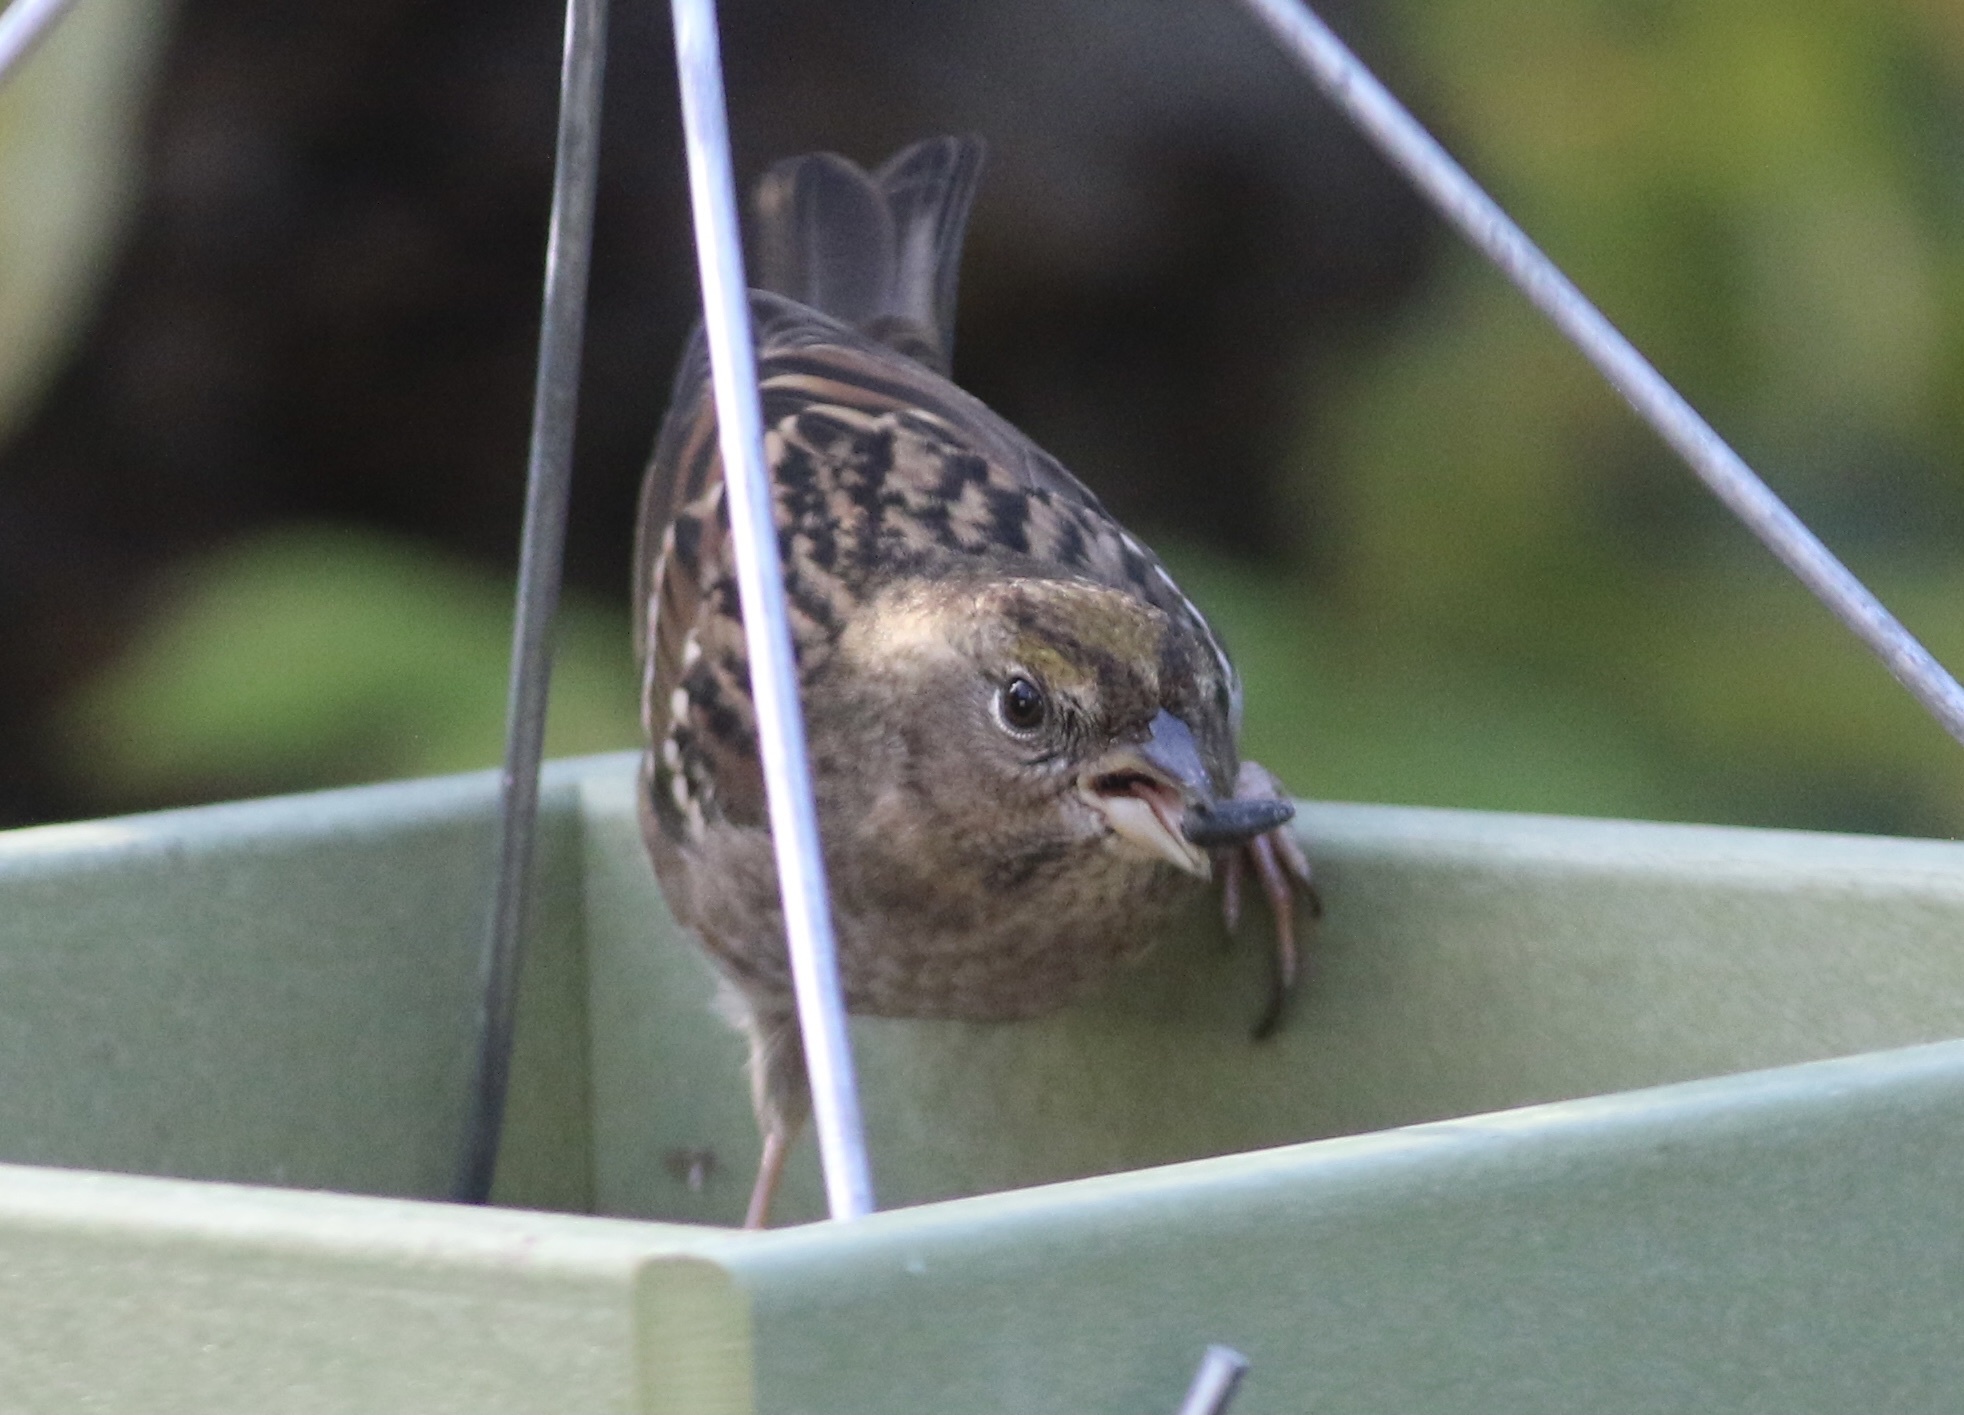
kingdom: Animalia
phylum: Chordata
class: Aves
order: Passeriformes
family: Passerellidae
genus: Zonotrichia
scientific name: Zonotrichia atricapilla
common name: Golden-crowned sparrow
